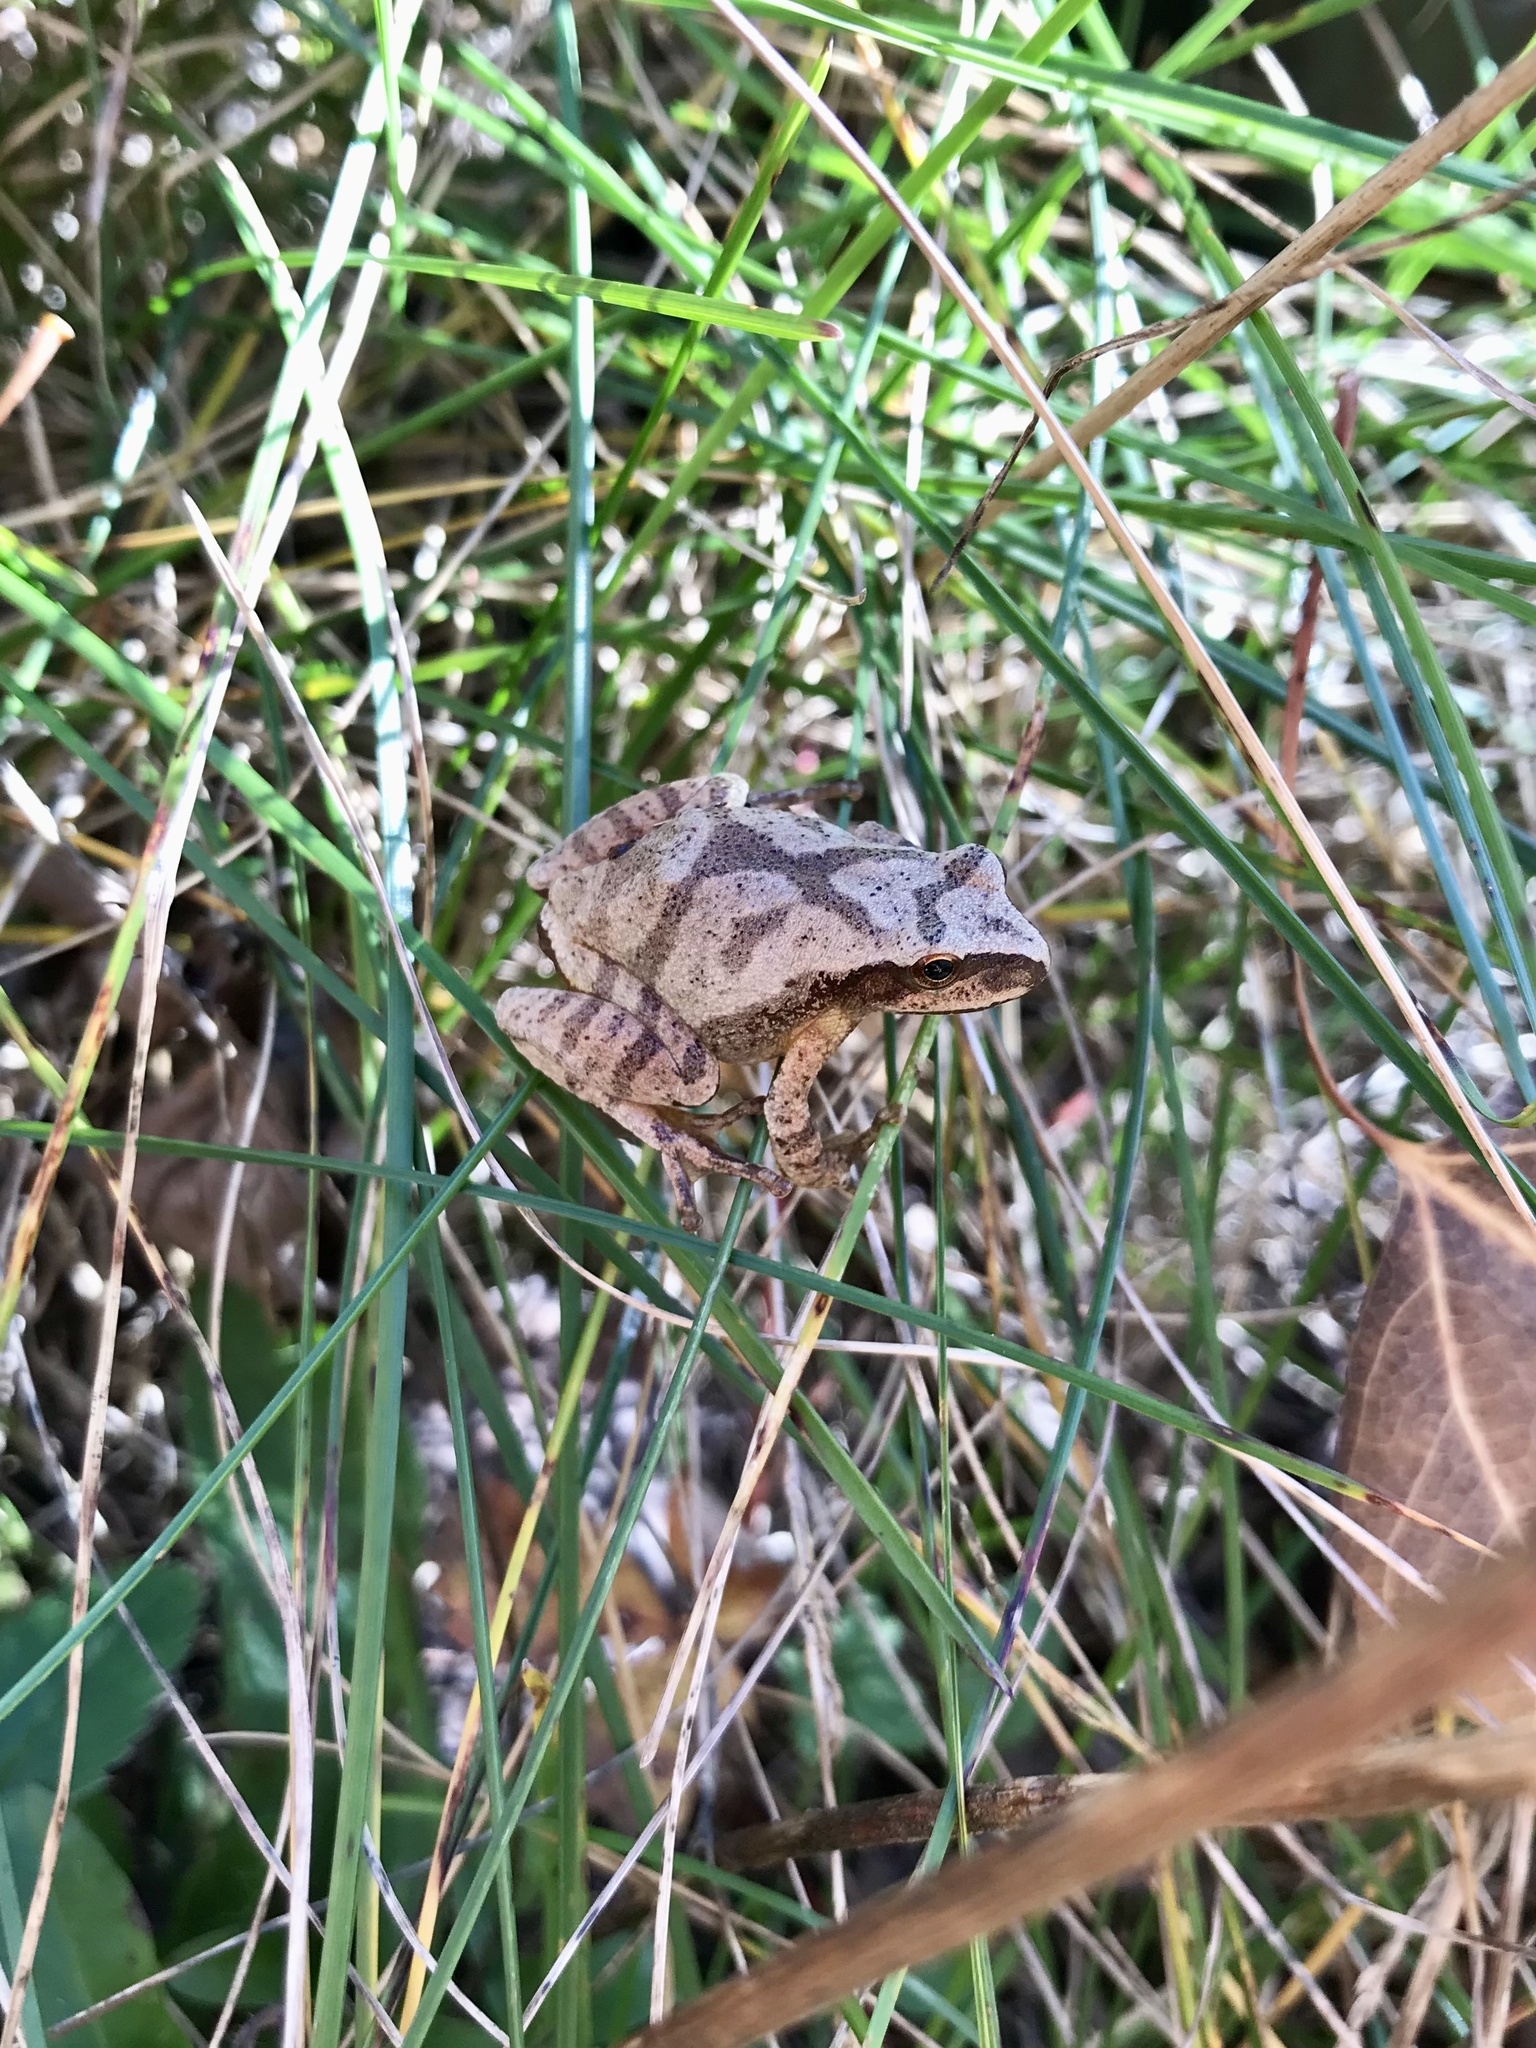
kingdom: Animalia
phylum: Chordata
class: Amphibia
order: Anura
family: Hylidae
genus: Pseudacris
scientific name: Pseudacris crucifer
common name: Spring peeper
